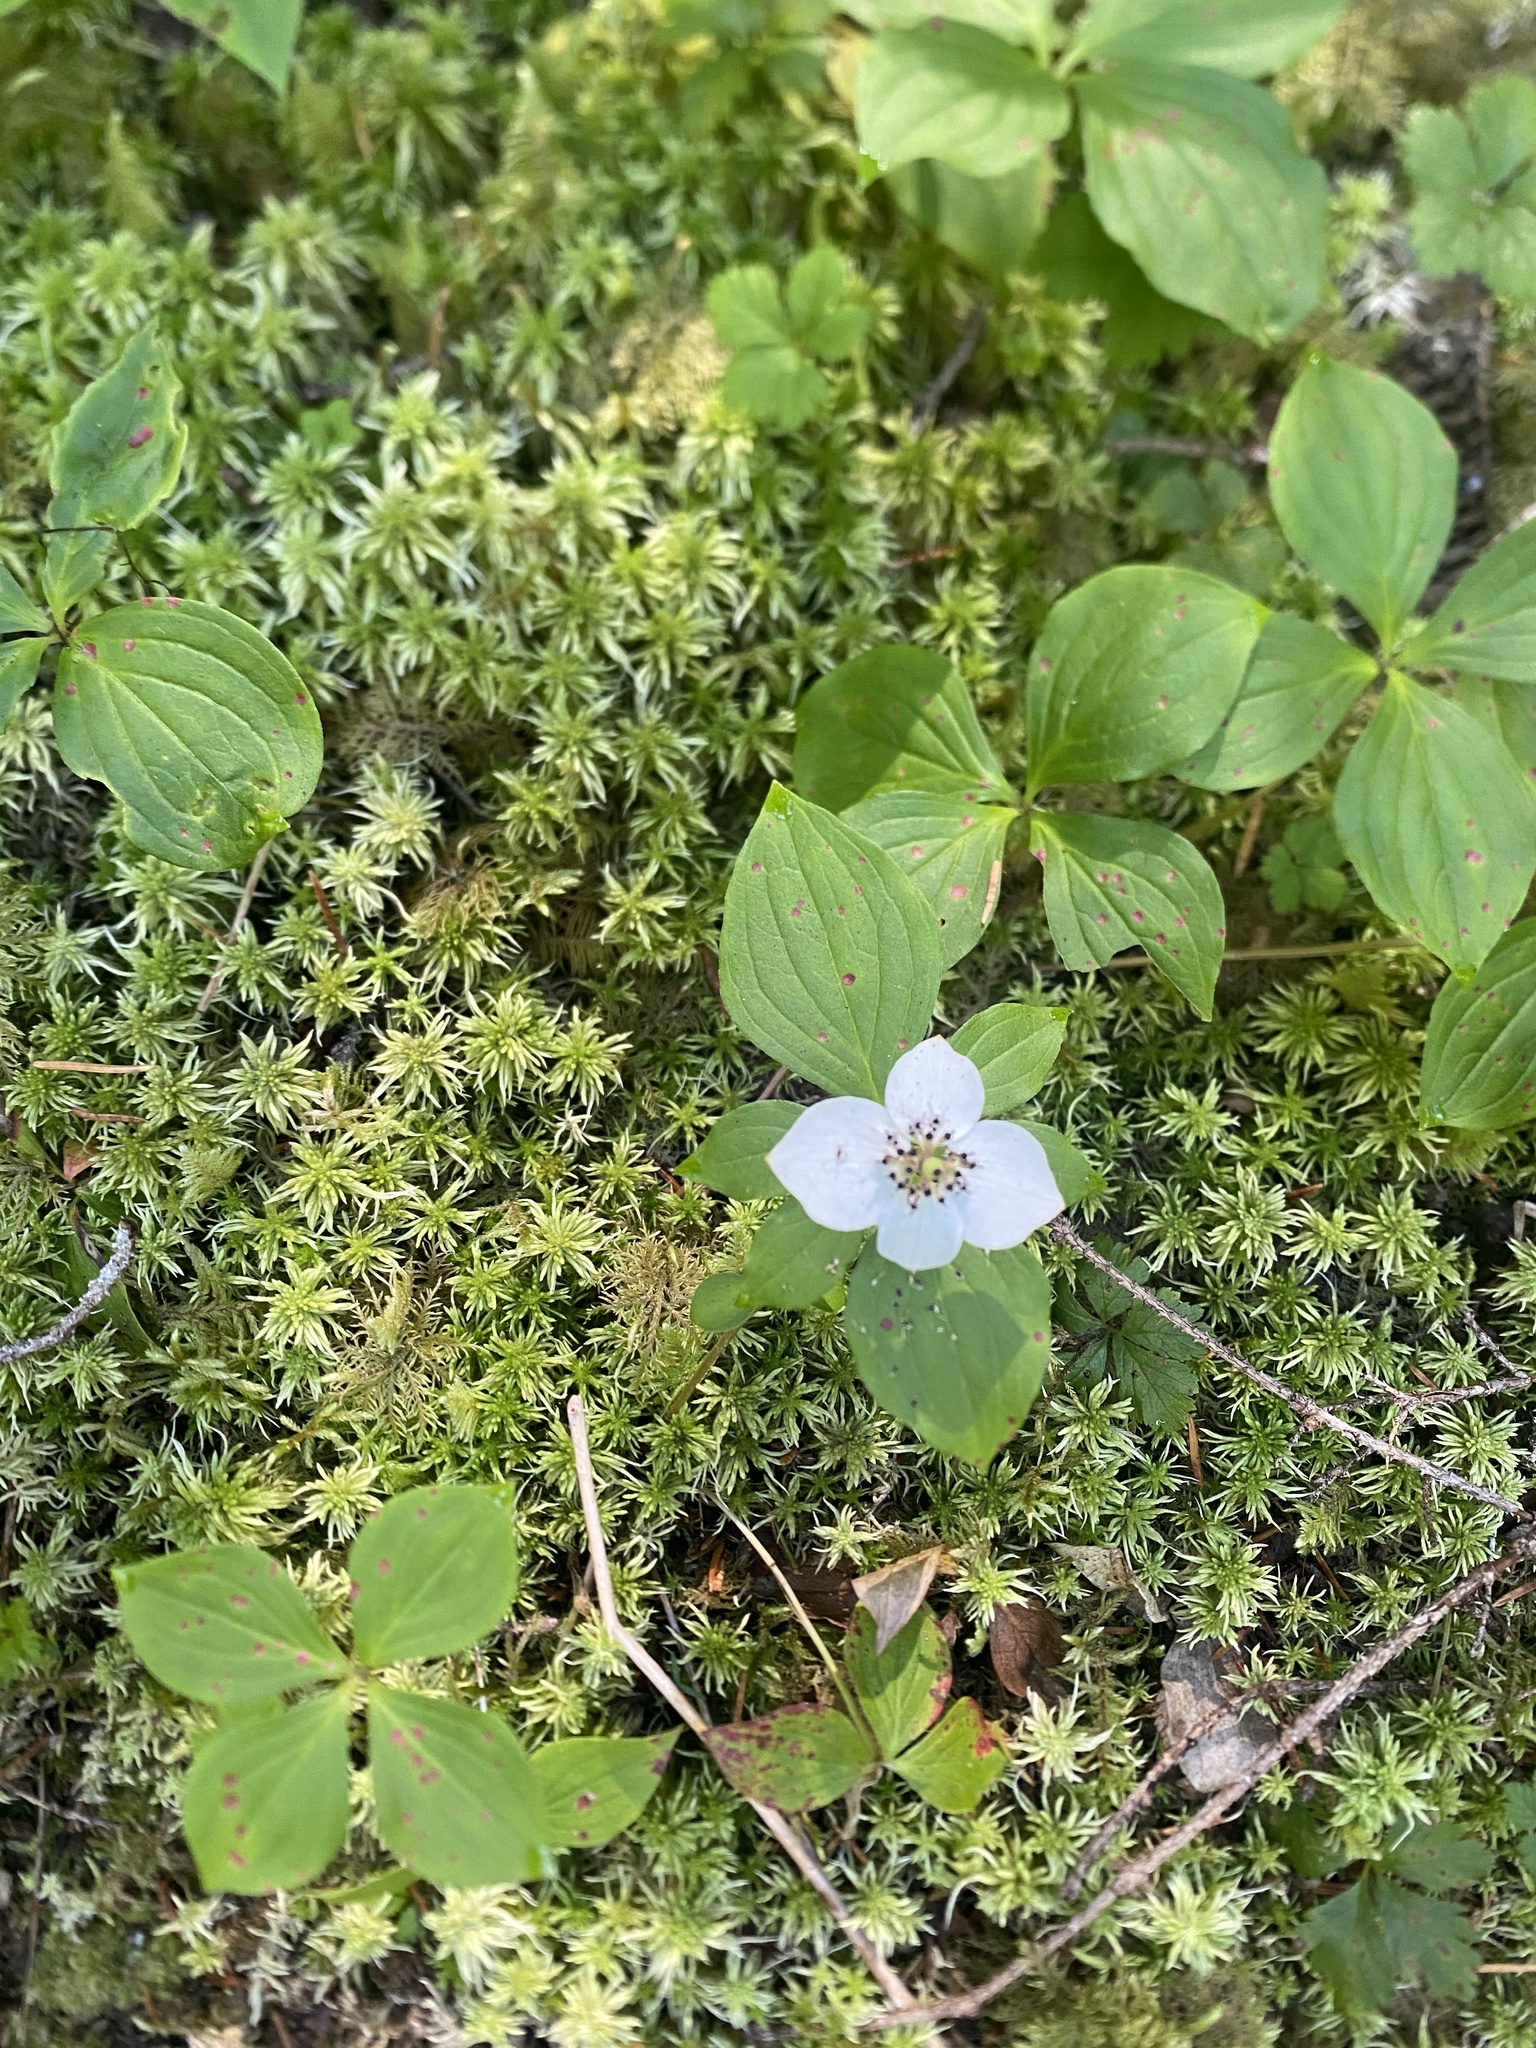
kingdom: Plantae
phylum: Tracheophyta
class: Magnoliopsida
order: Cornales
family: Cornaceae
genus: Cornus
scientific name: Cornus unalaschkensis
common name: Alaska bunchberry
